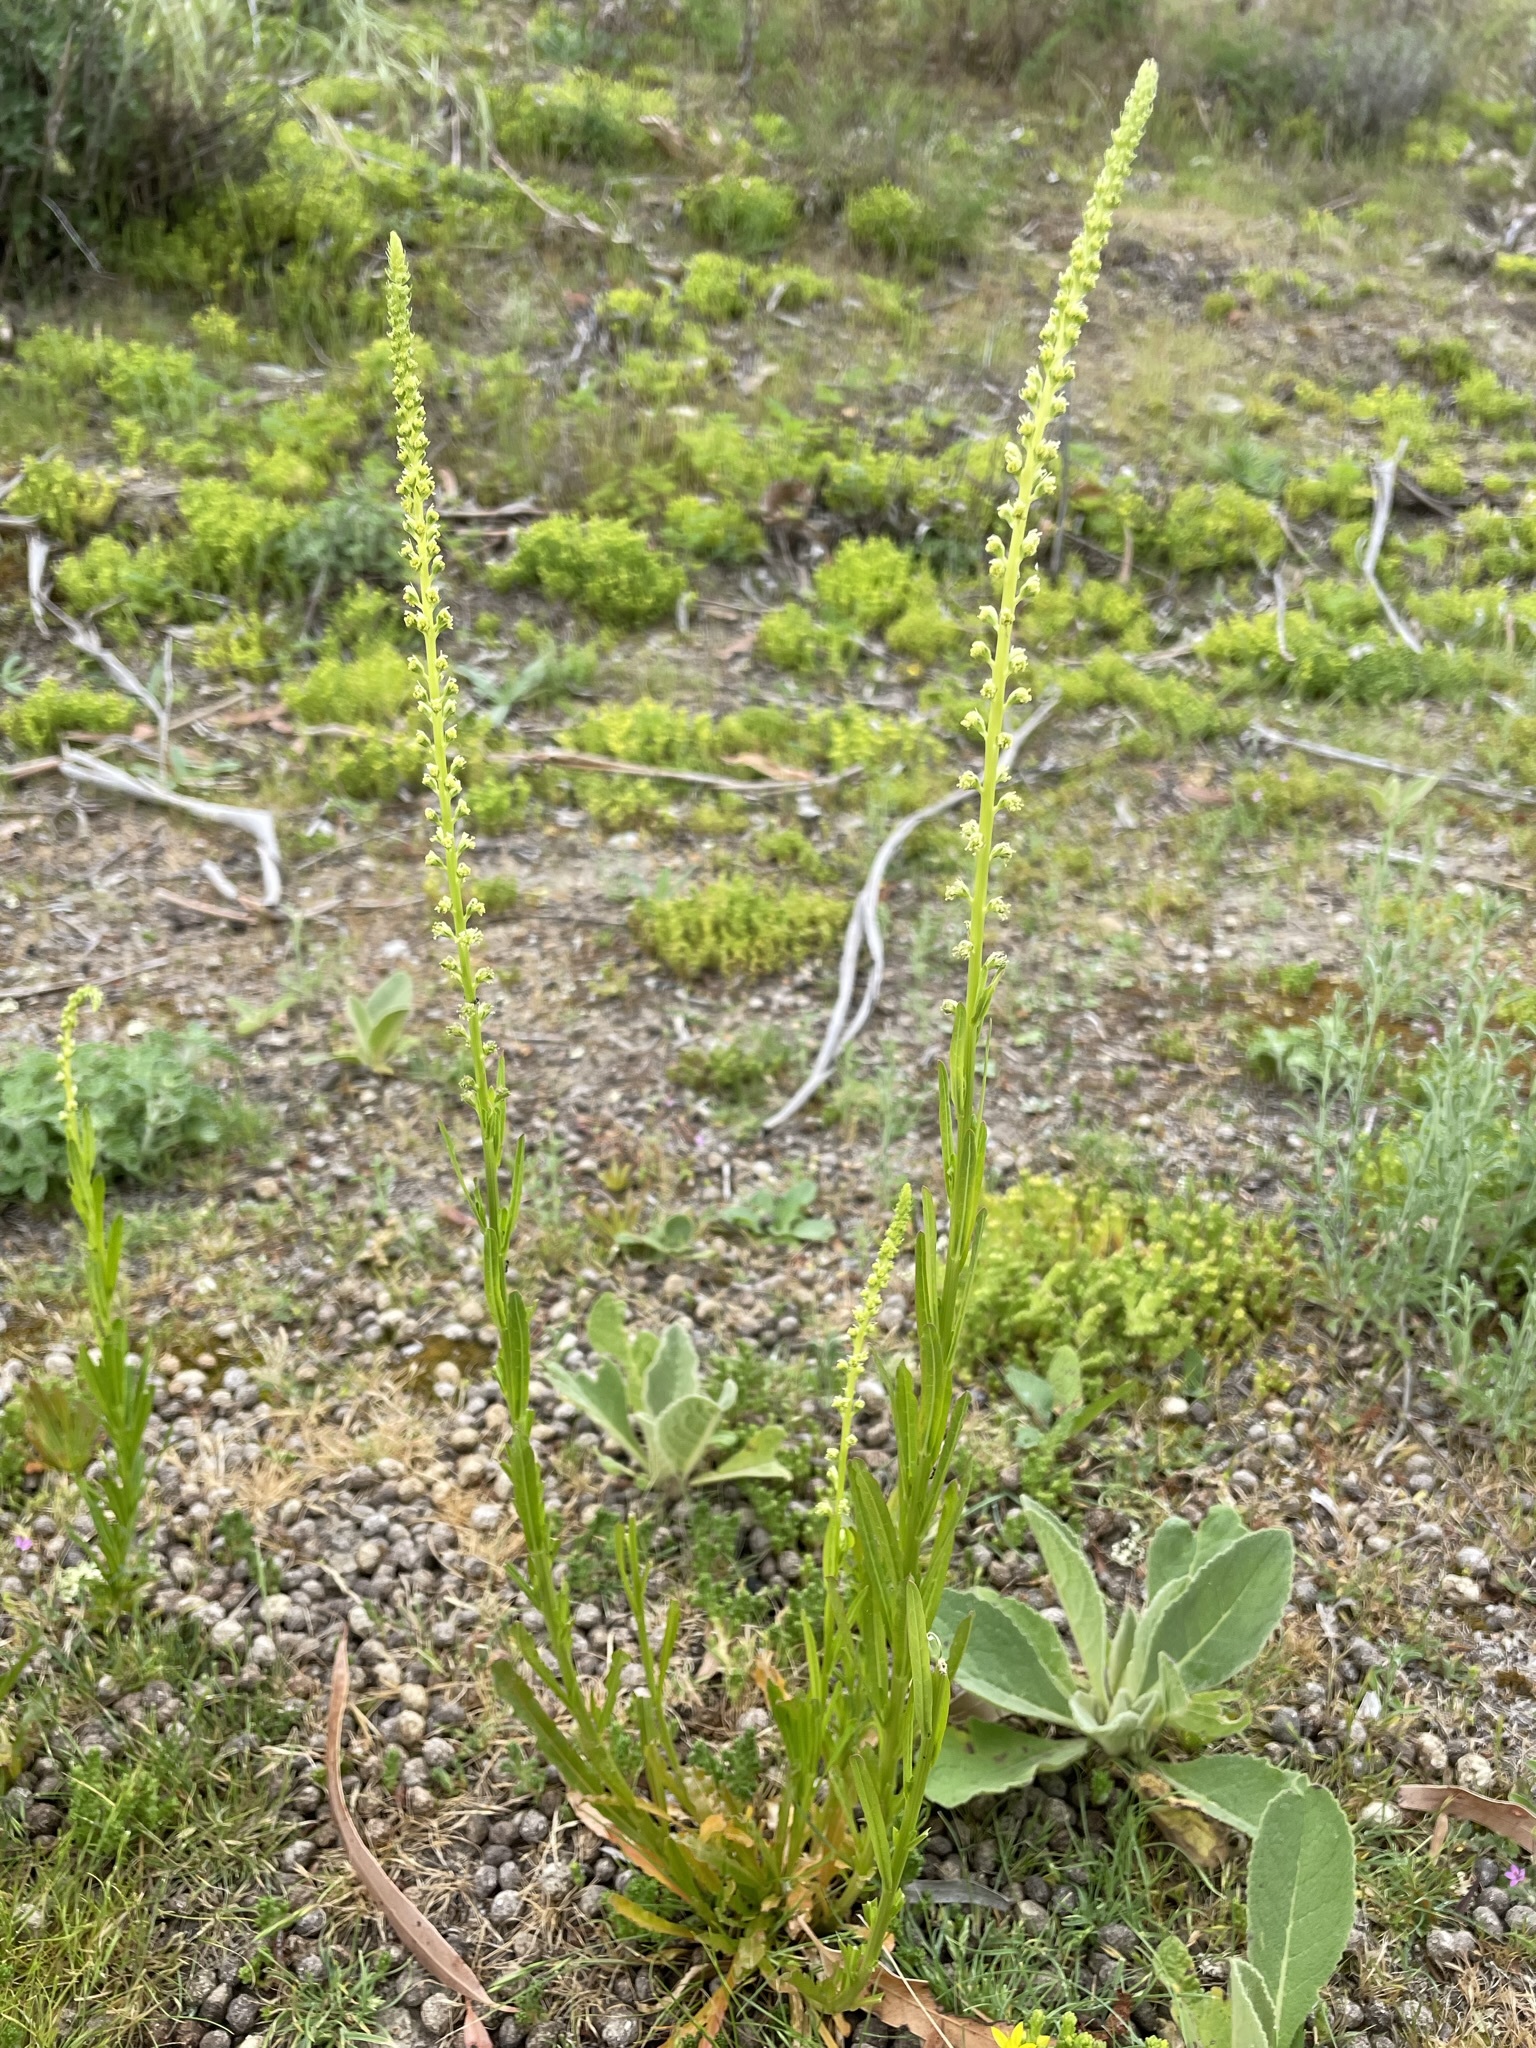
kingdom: Plantae
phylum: Tracheophyta
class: Magnoliopsida
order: Brassicales
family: Resedaceae
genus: Reseda
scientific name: Reseda luteola
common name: Weld
